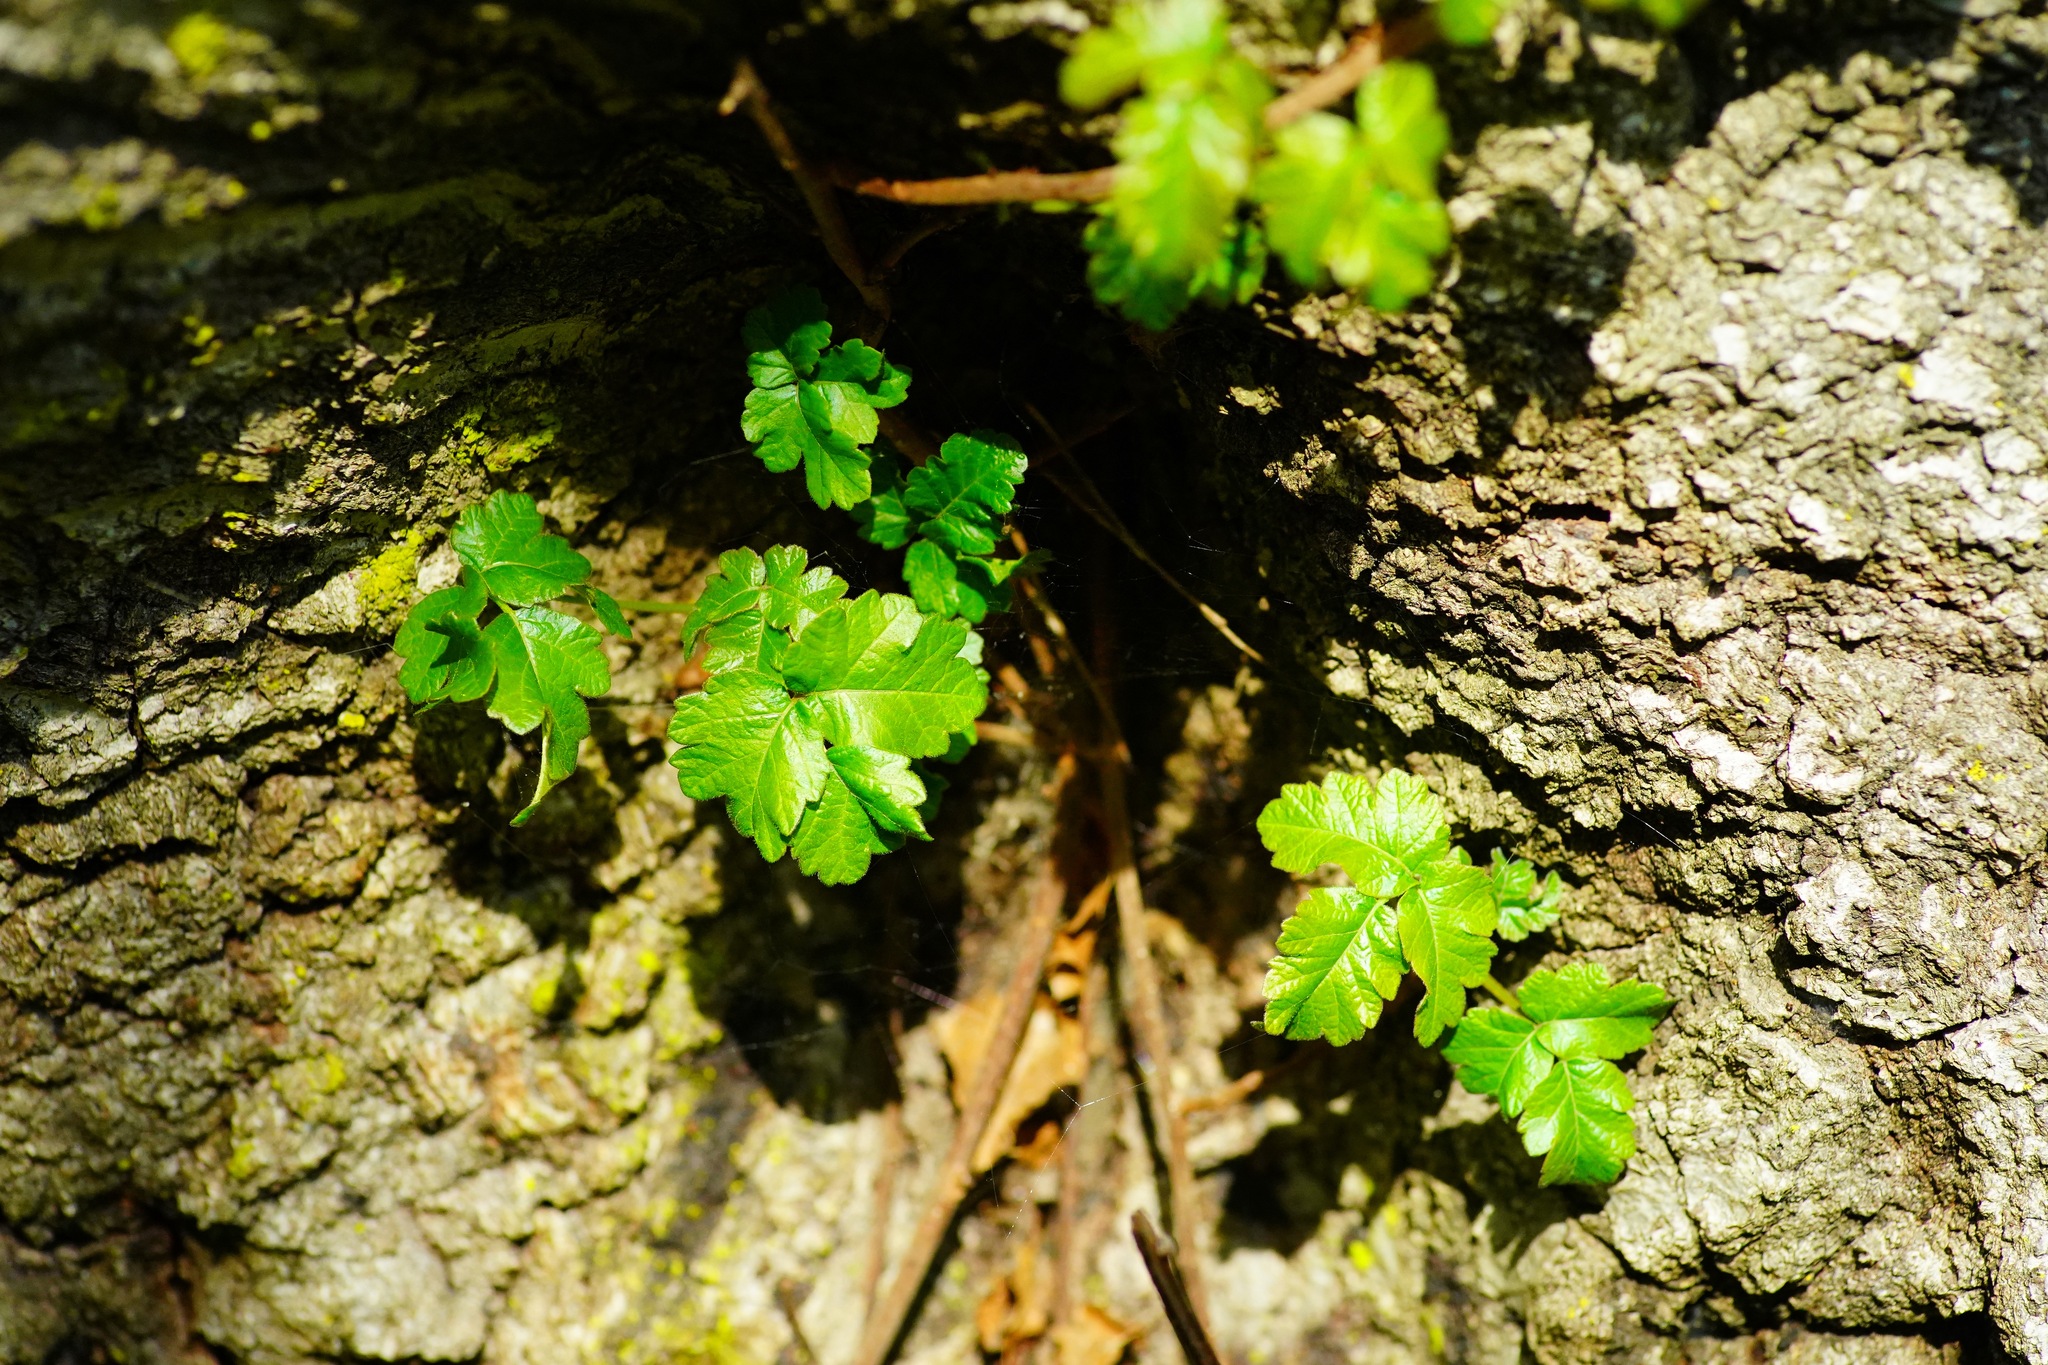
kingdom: Plantae
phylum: Tracheophyta
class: Magnoliopsida
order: Sapindales
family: Anacardiaceae
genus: Toxicodendron
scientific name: Toxicodendron diversilobum
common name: Pacific poison-oak
